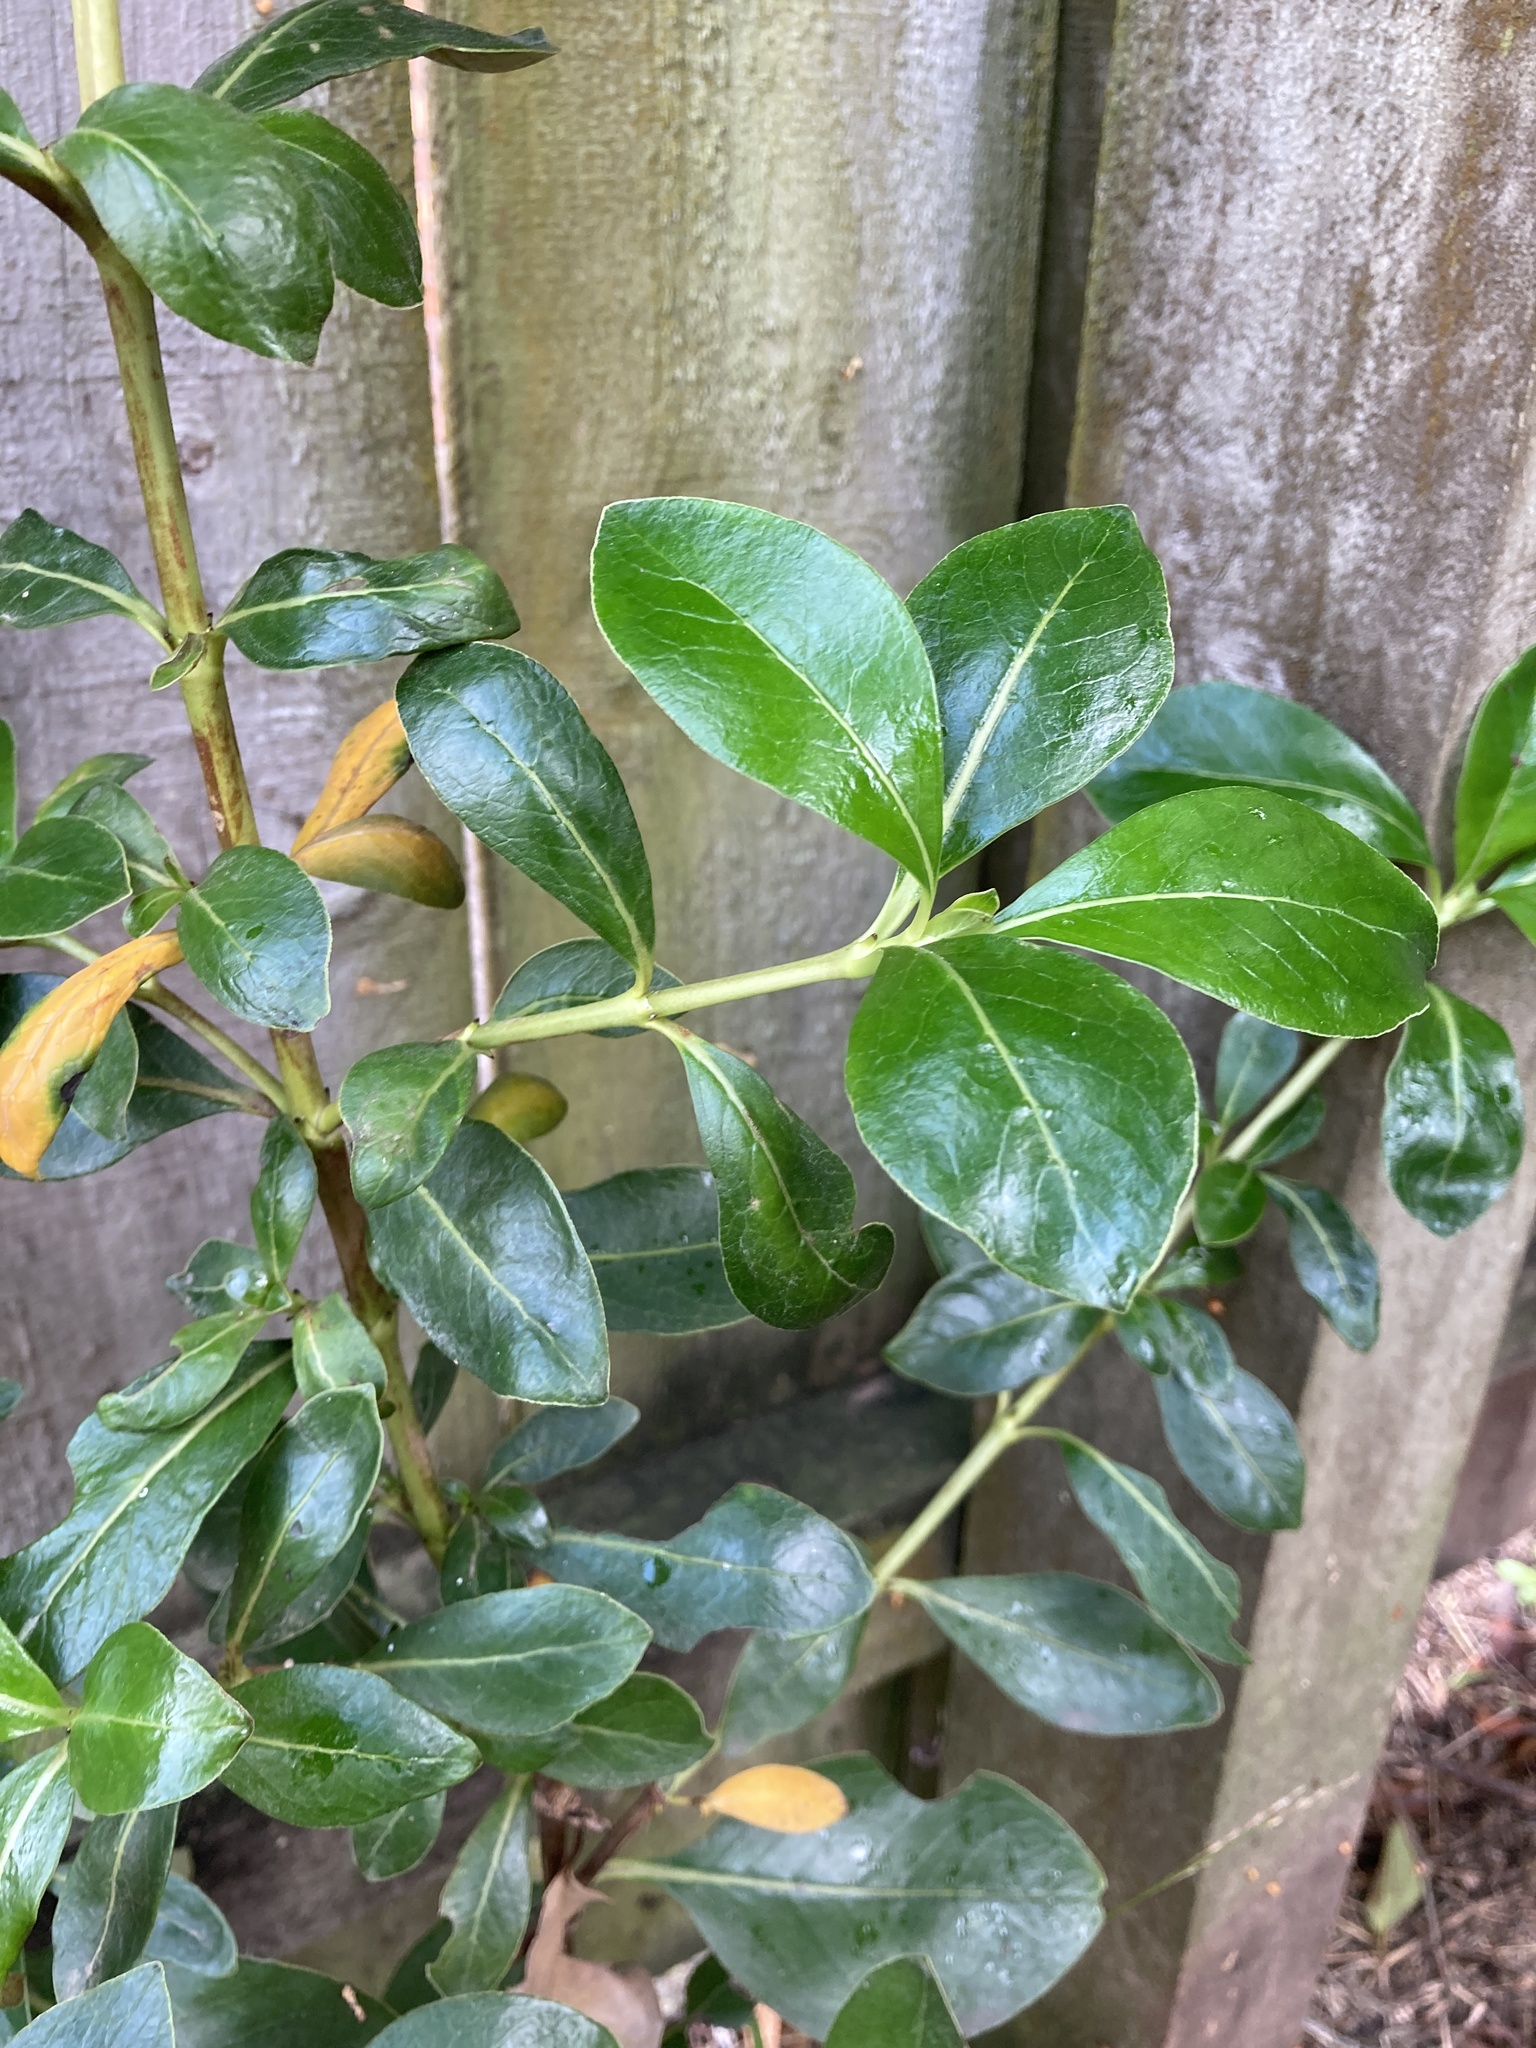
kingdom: Plantae
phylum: Tracheophyta
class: Magnoliopsida
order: Gentianales
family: Rubiaceae
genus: Coprosma
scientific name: Coprosma robusta
